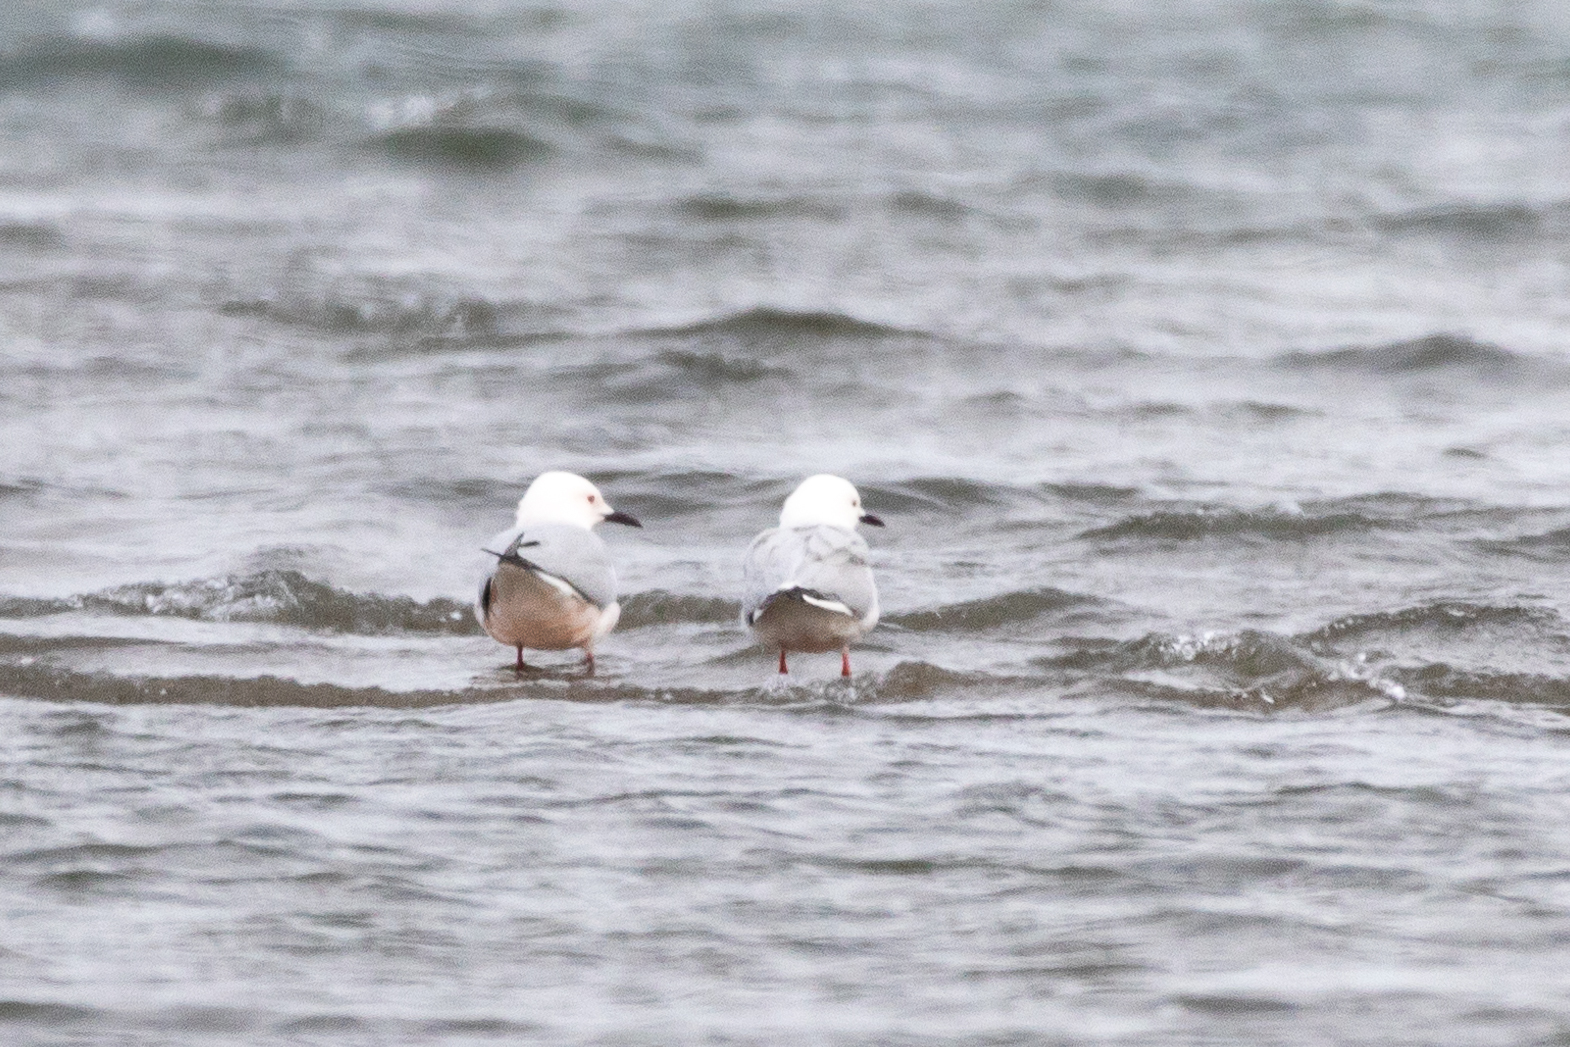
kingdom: Animalia
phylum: Chordata
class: Aves
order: Charadriiformes
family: Laridae
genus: Chroicocephalus
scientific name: Chroicocephalus genei
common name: Slender-billed gull
